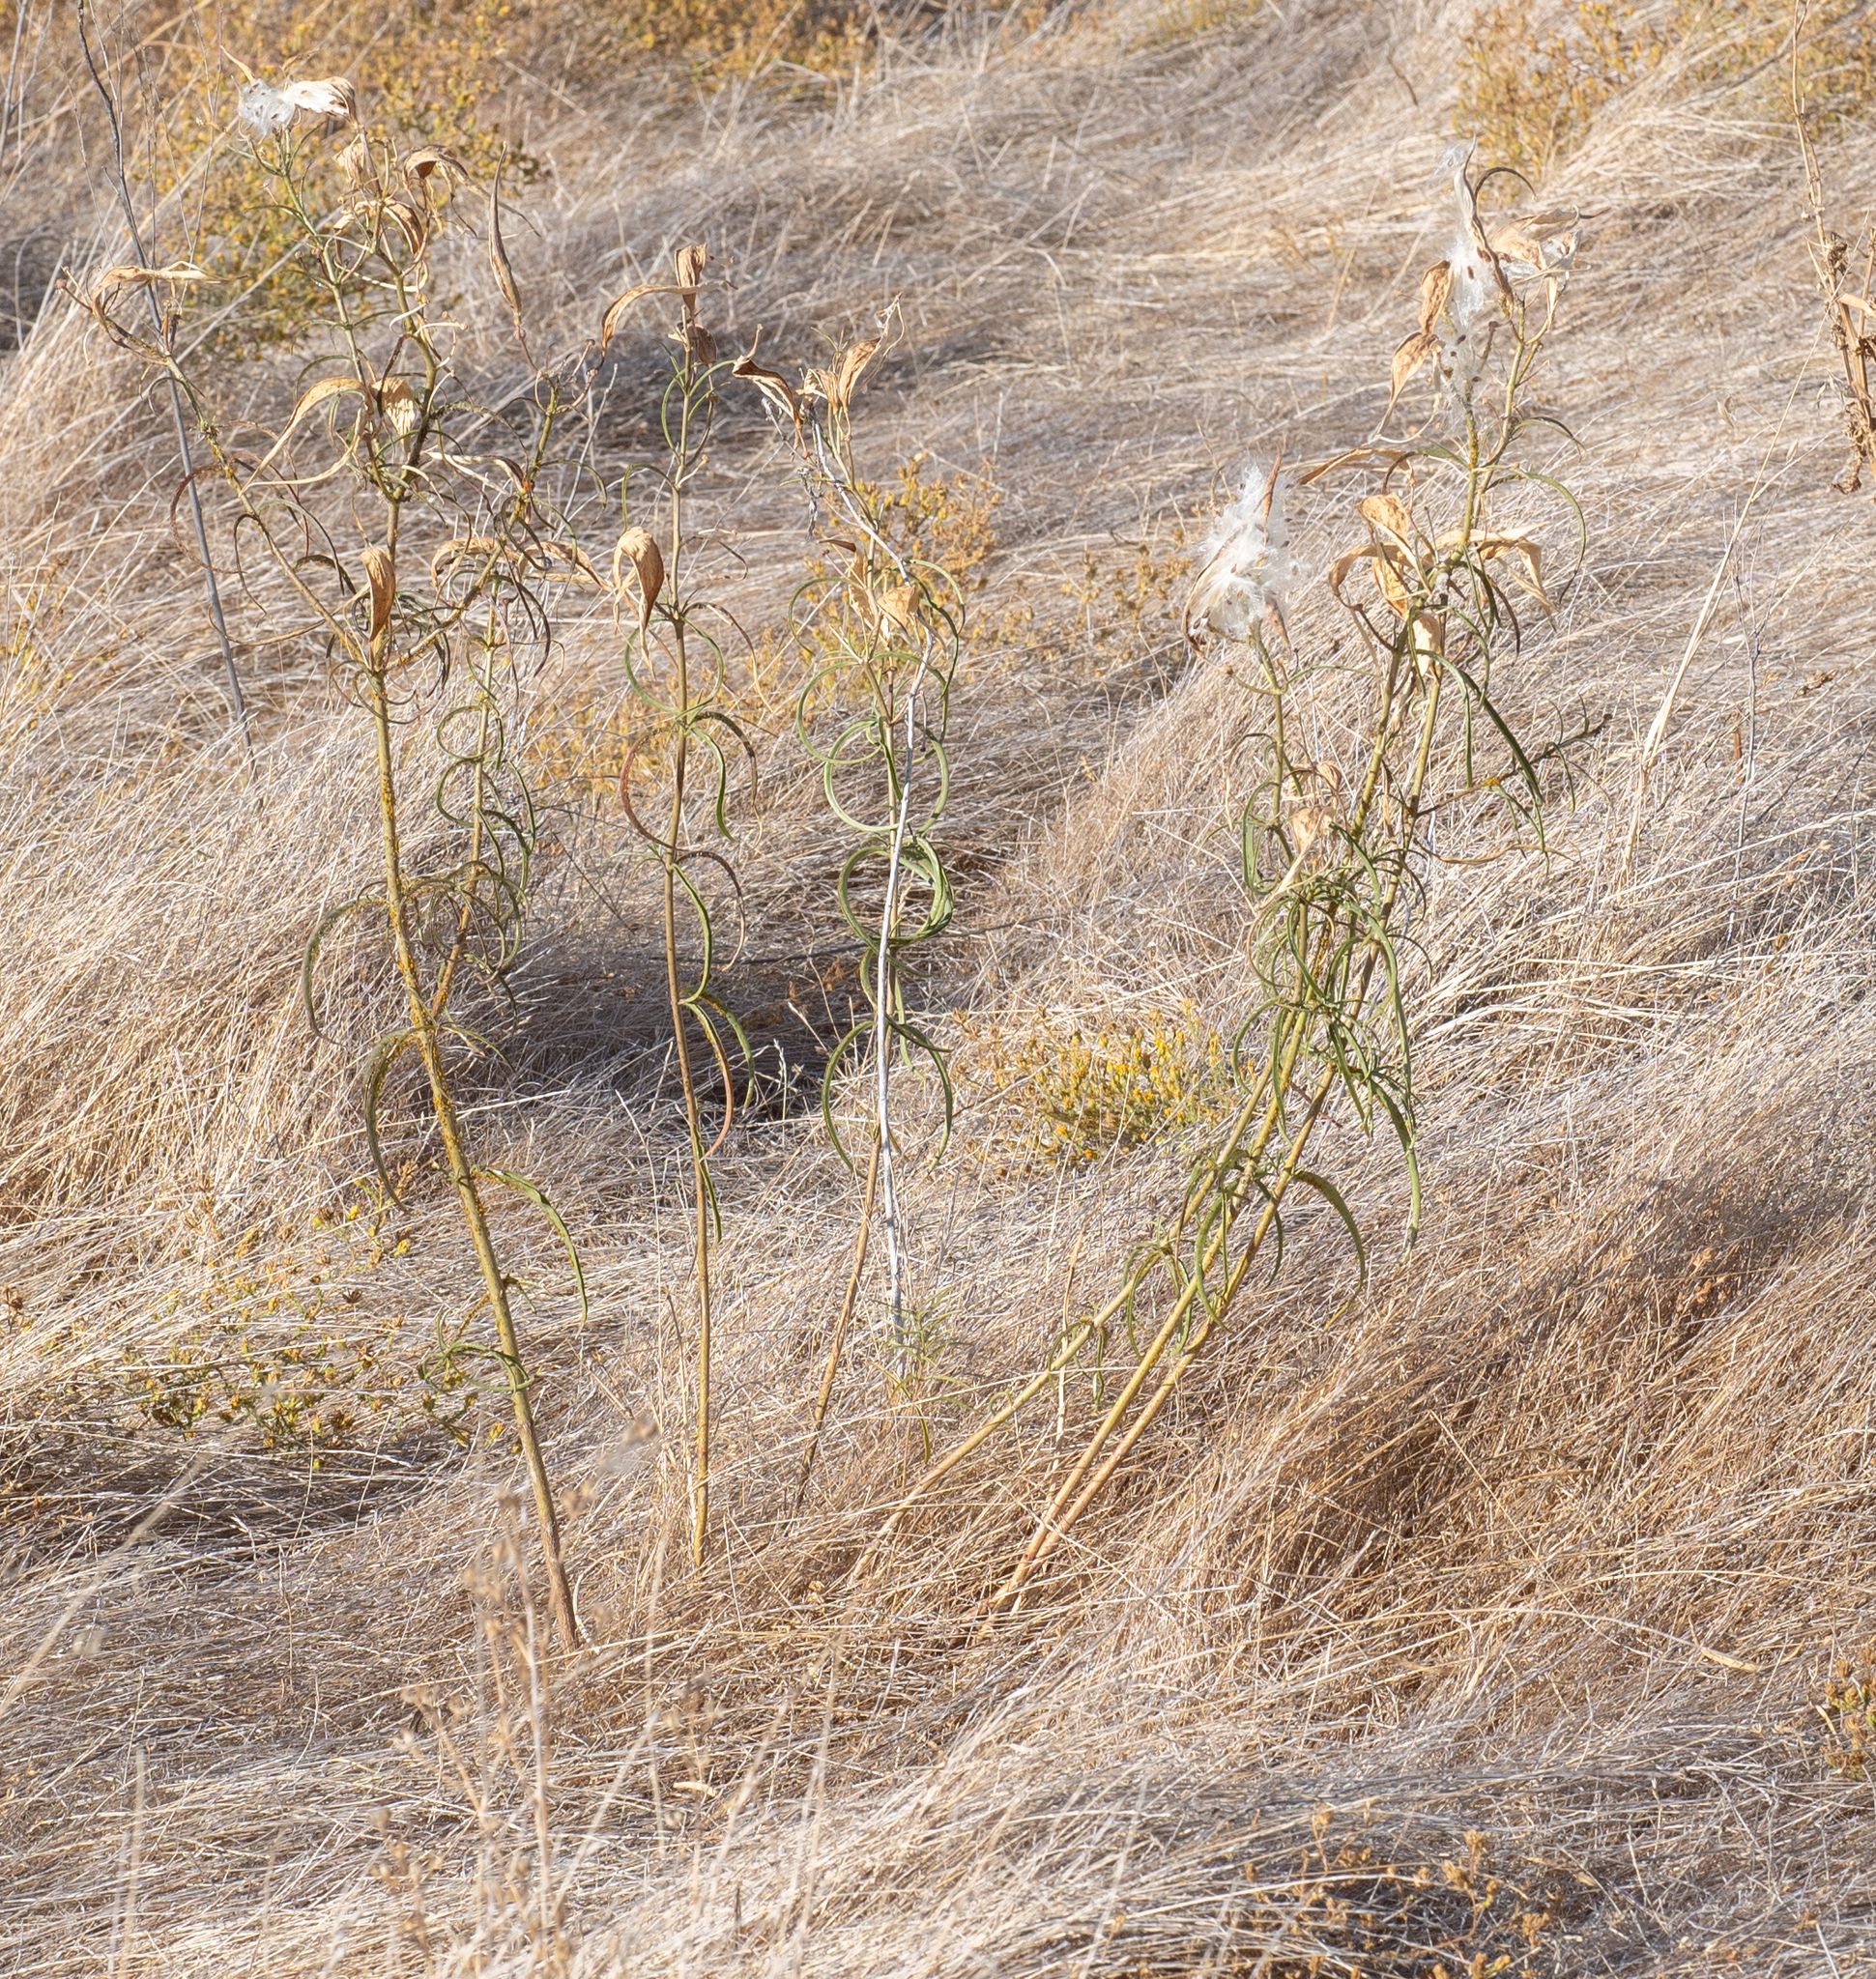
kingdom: Plantae
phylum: Tracheophyta
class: Magnoliopsida
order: Gentianales
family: Apocynaceae
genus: Asclepias
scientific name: Asclepias fascicularis
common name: Mexican milkweed
